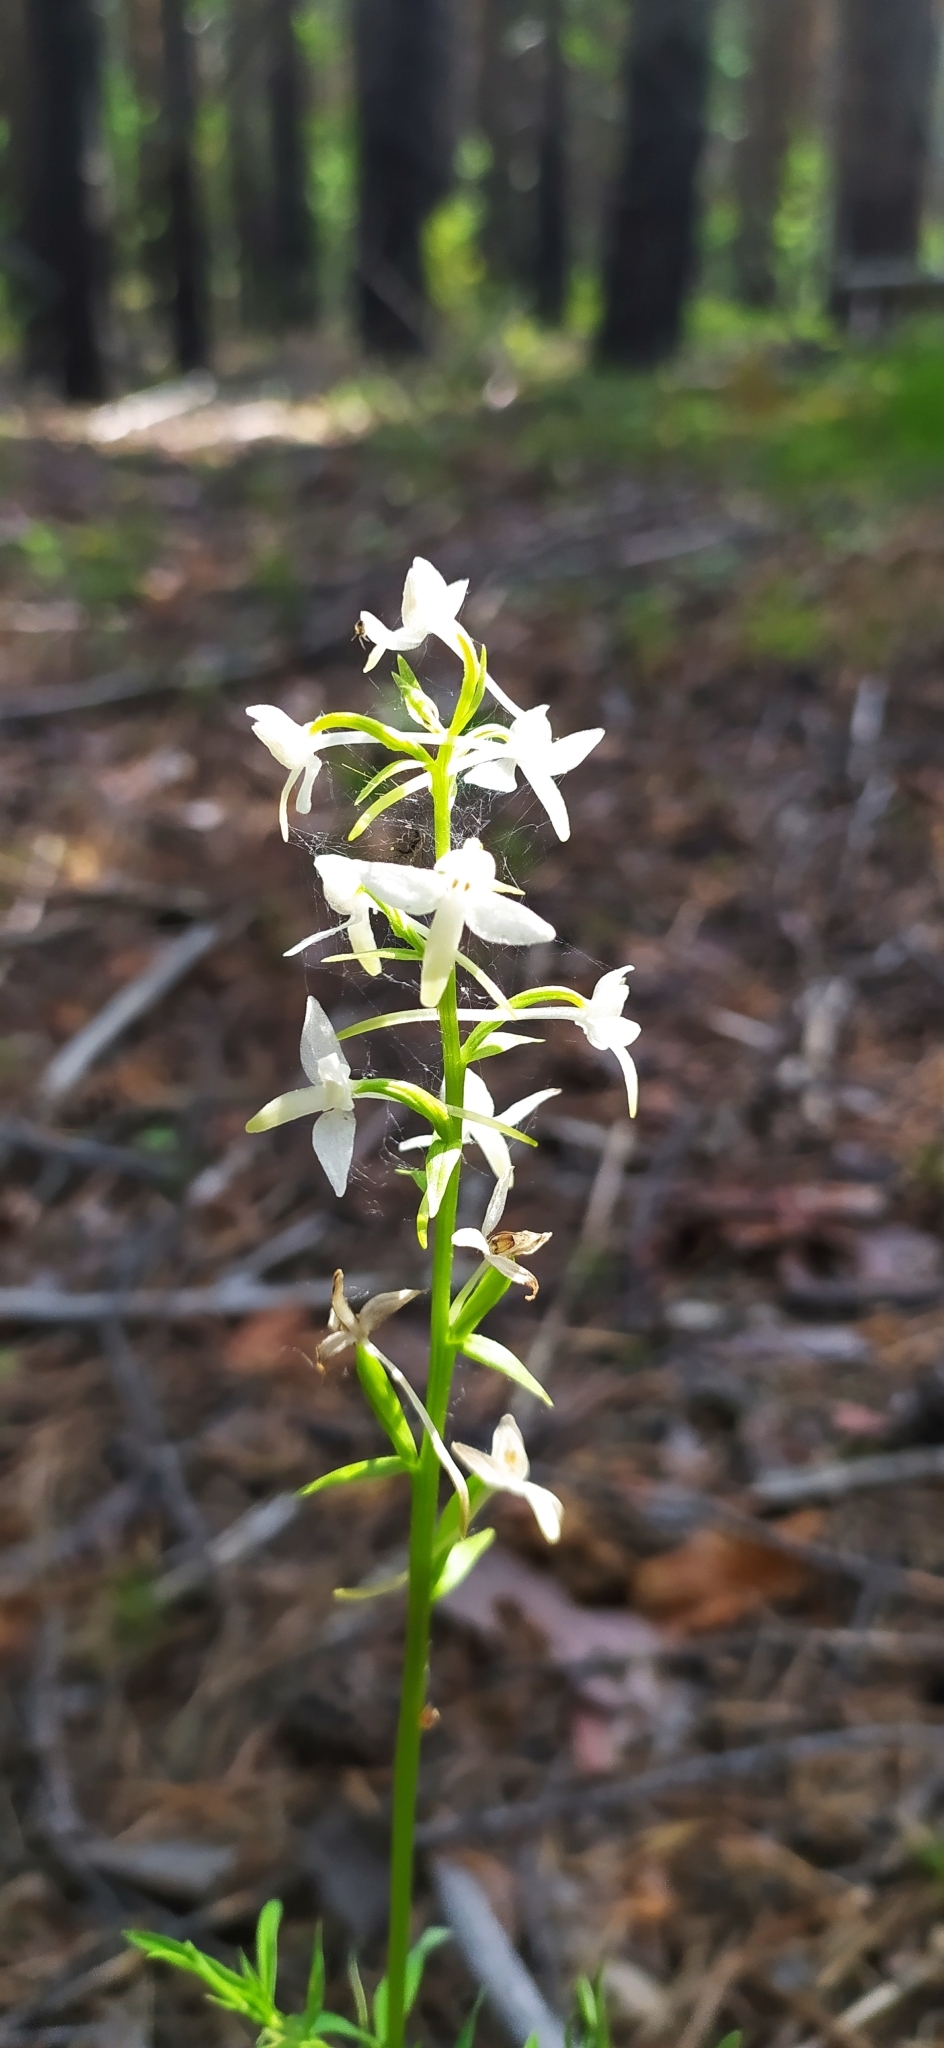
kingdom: Plantae
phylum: Tracheophyta
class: Liliopsida
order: Asparagales
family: Orchidaceae
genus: Platanthera
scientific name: Platanthera bifolia
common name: Lesser butterfly-orchid
